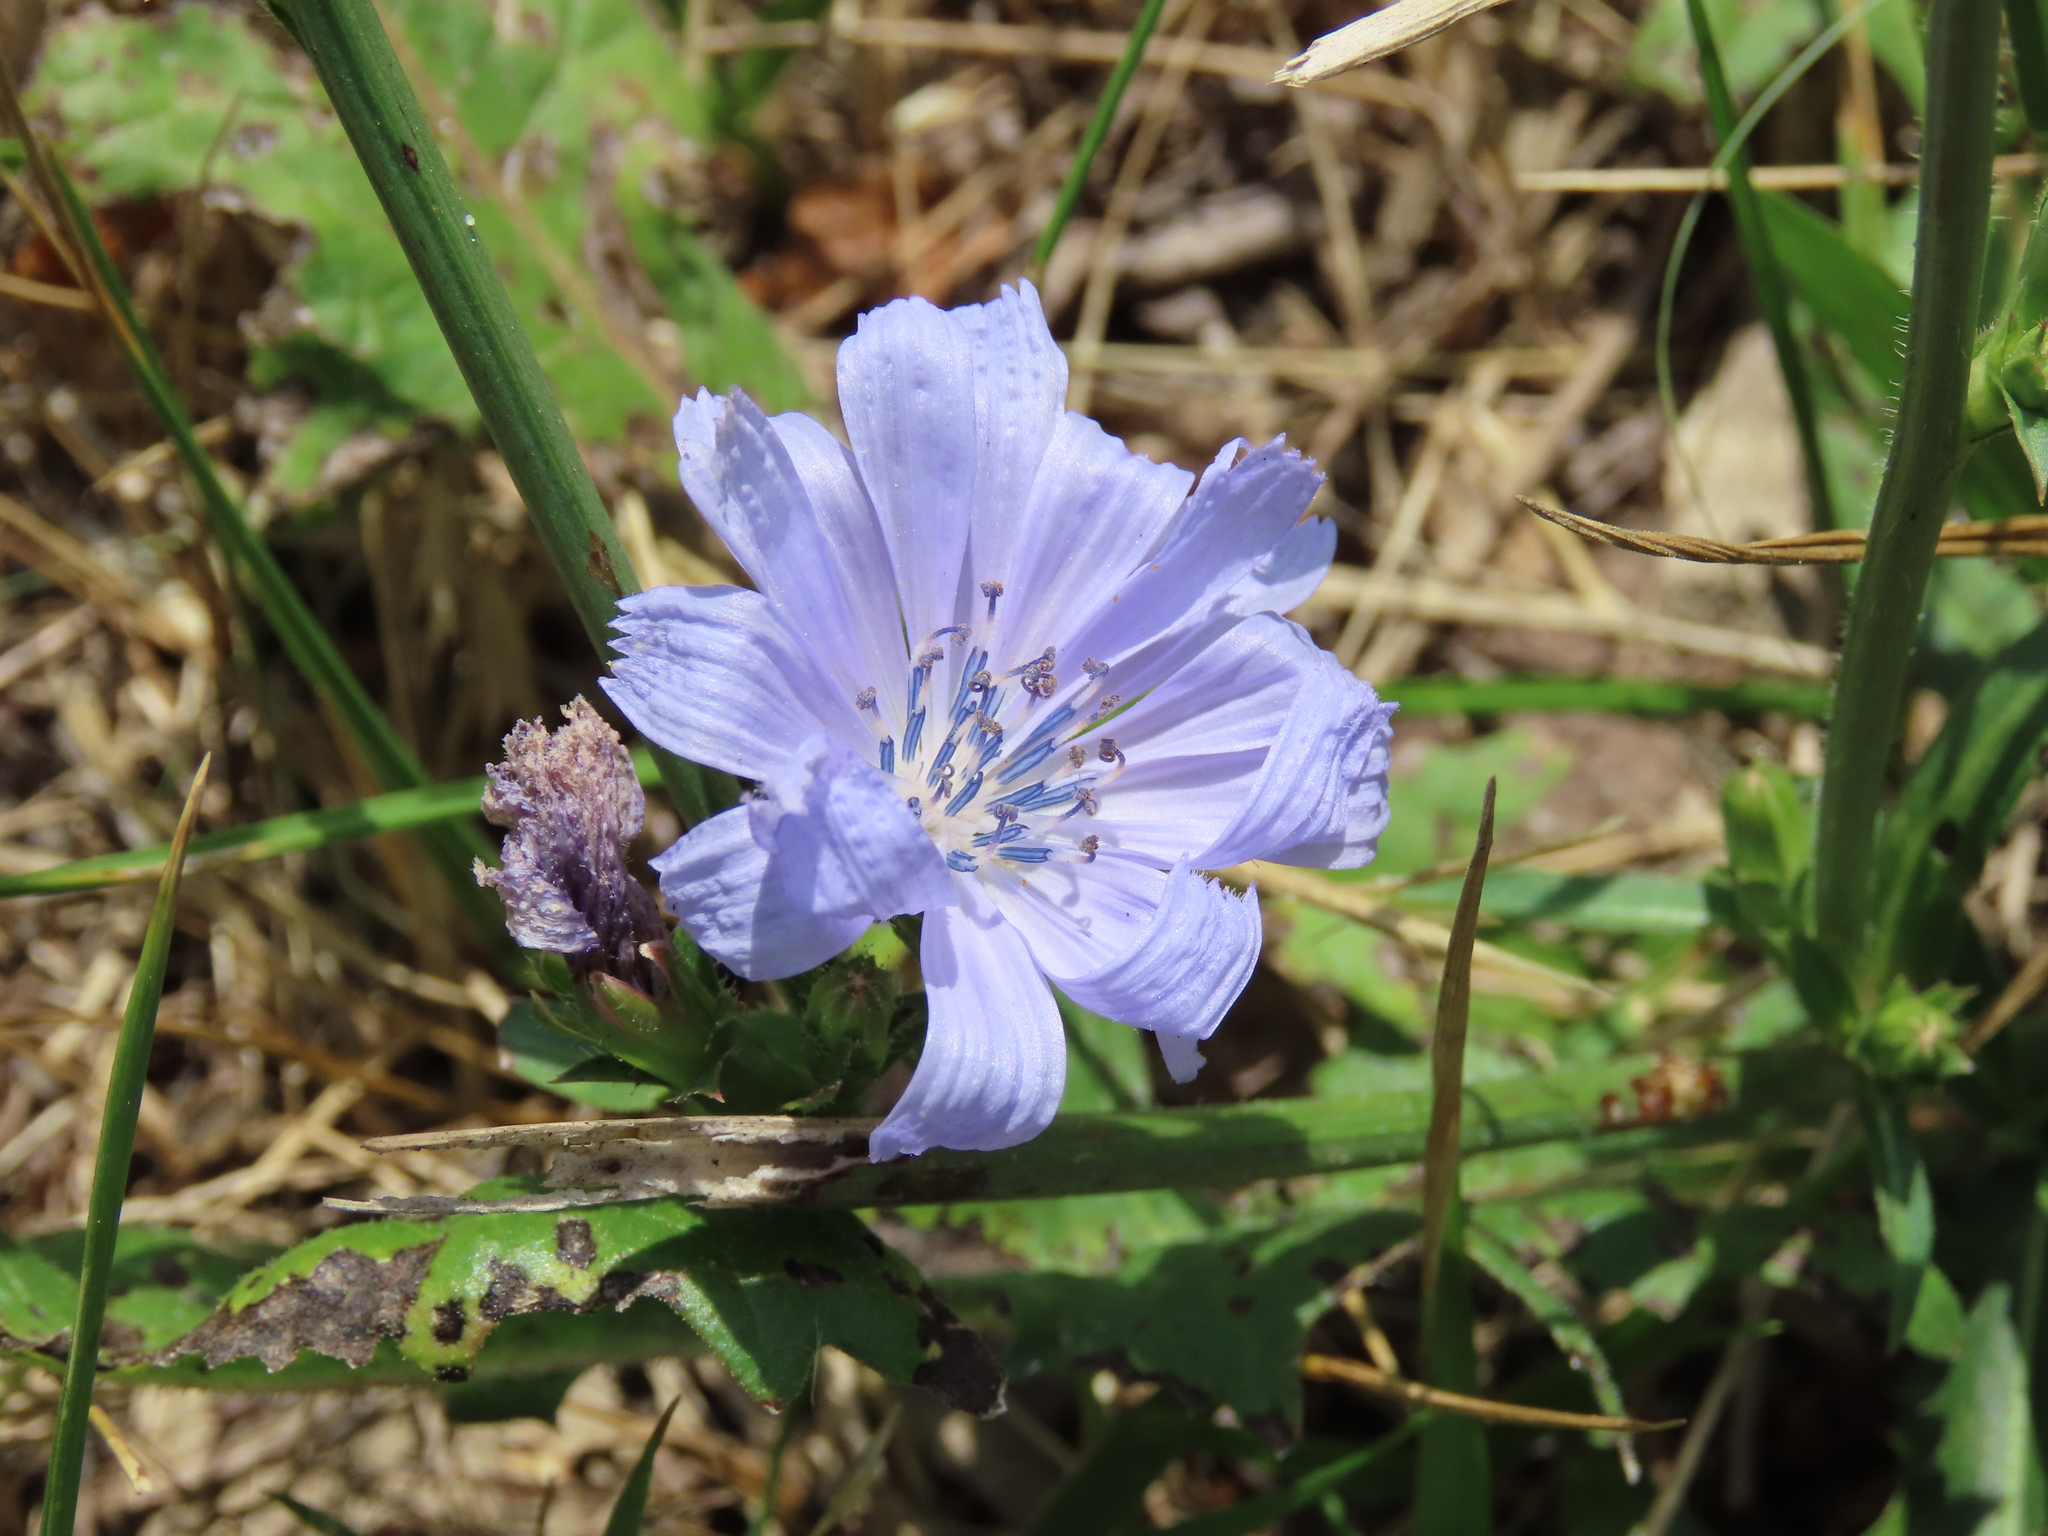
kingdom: Plantae
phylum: Tracheophyta
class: Magnoliopsida
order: Asterales
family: Asteraceae
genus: Cichorium
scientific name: Cichorium intybus
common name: Chicory
